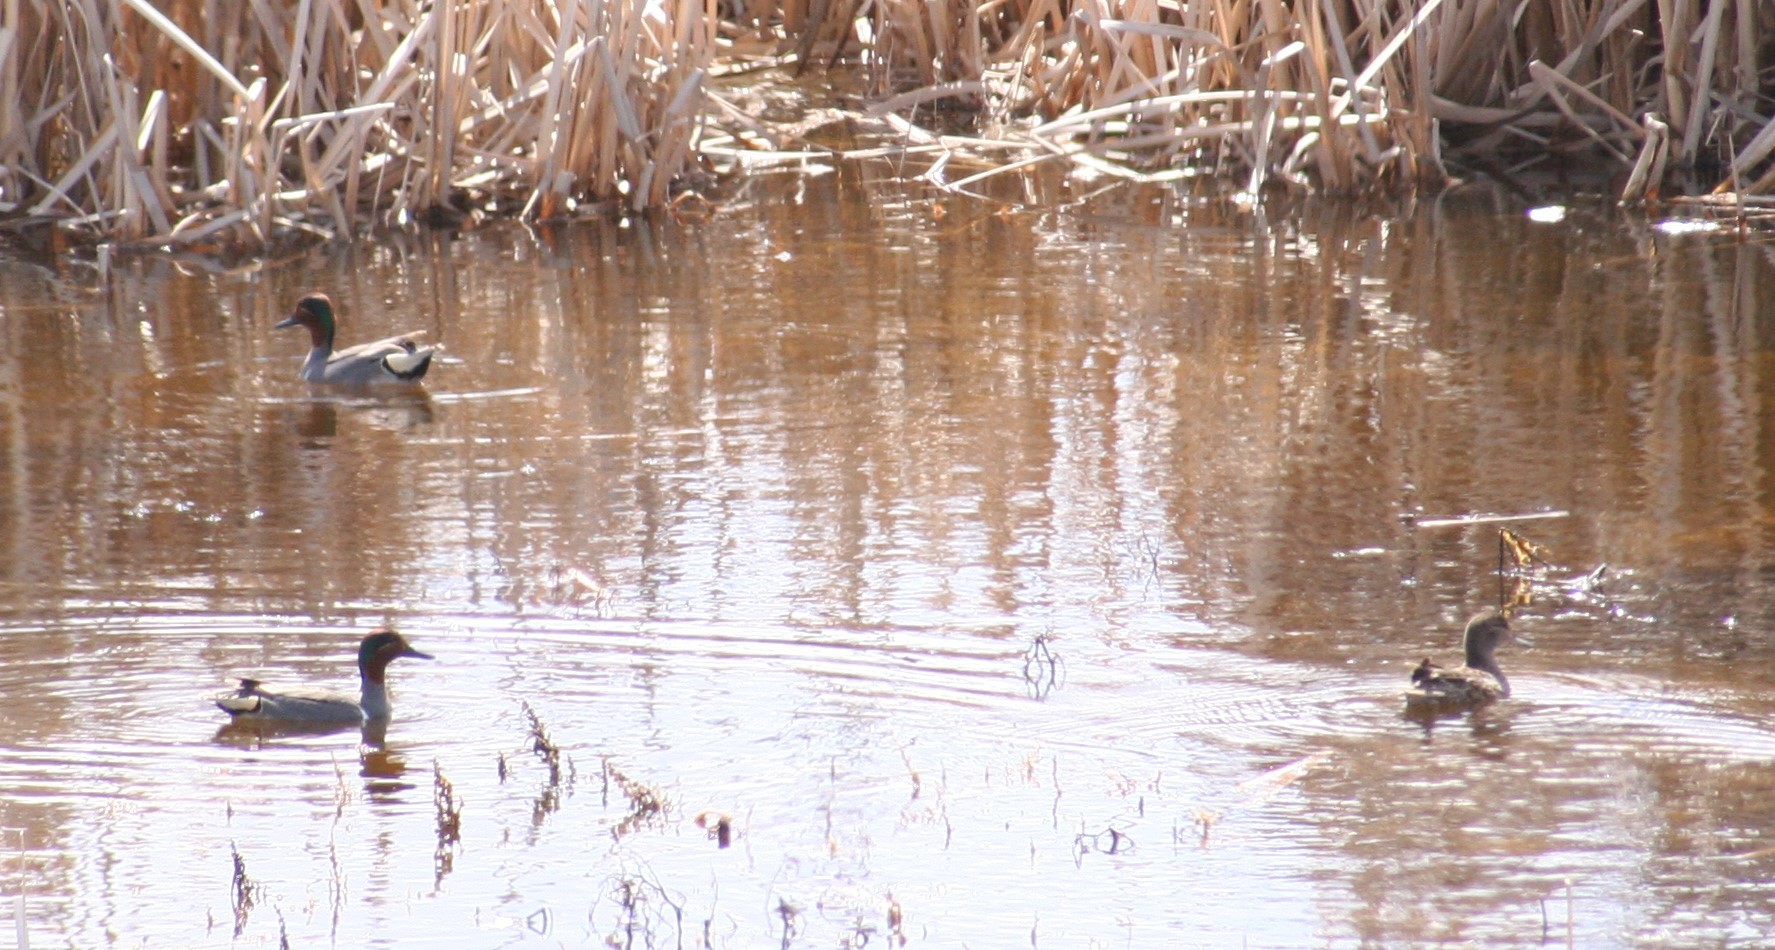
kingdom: Animalia
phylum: Chordata
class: Aves
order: Anseriformes
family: Anatidae
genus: Anas
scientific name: Anas crecca
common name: Eurasian teal
